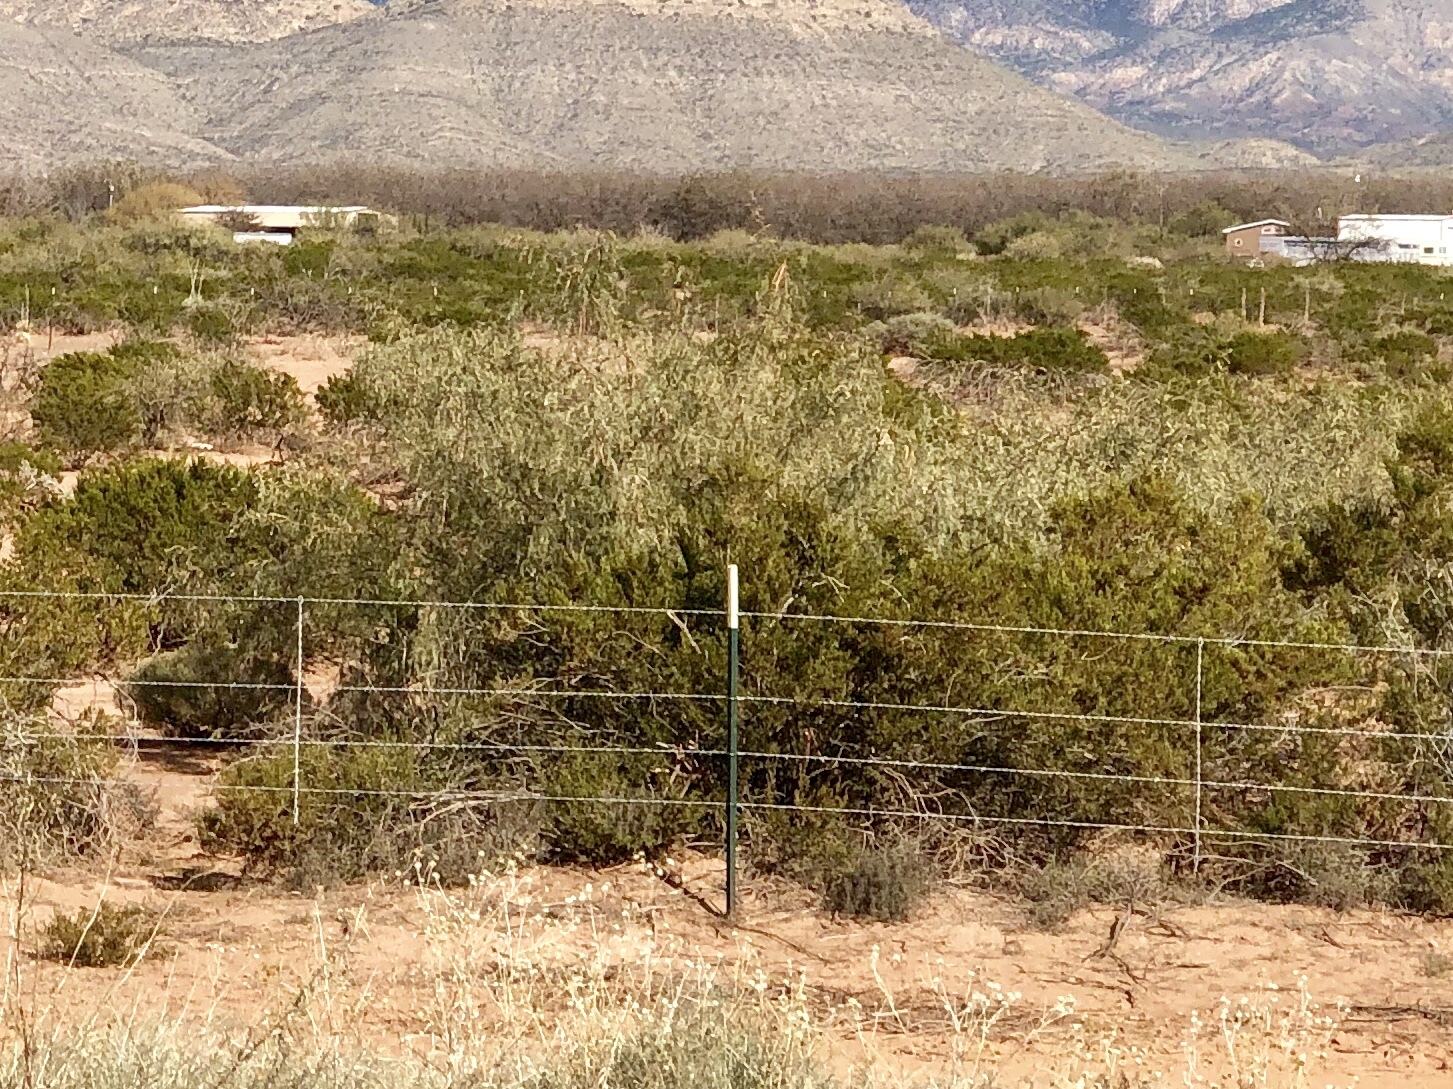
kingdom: Plantae
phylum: Tracheophyta
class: Magnoliopsida
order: Zygophyllales
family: Zygophyllaceae
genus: Larrea
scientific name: Larrea tridentata
